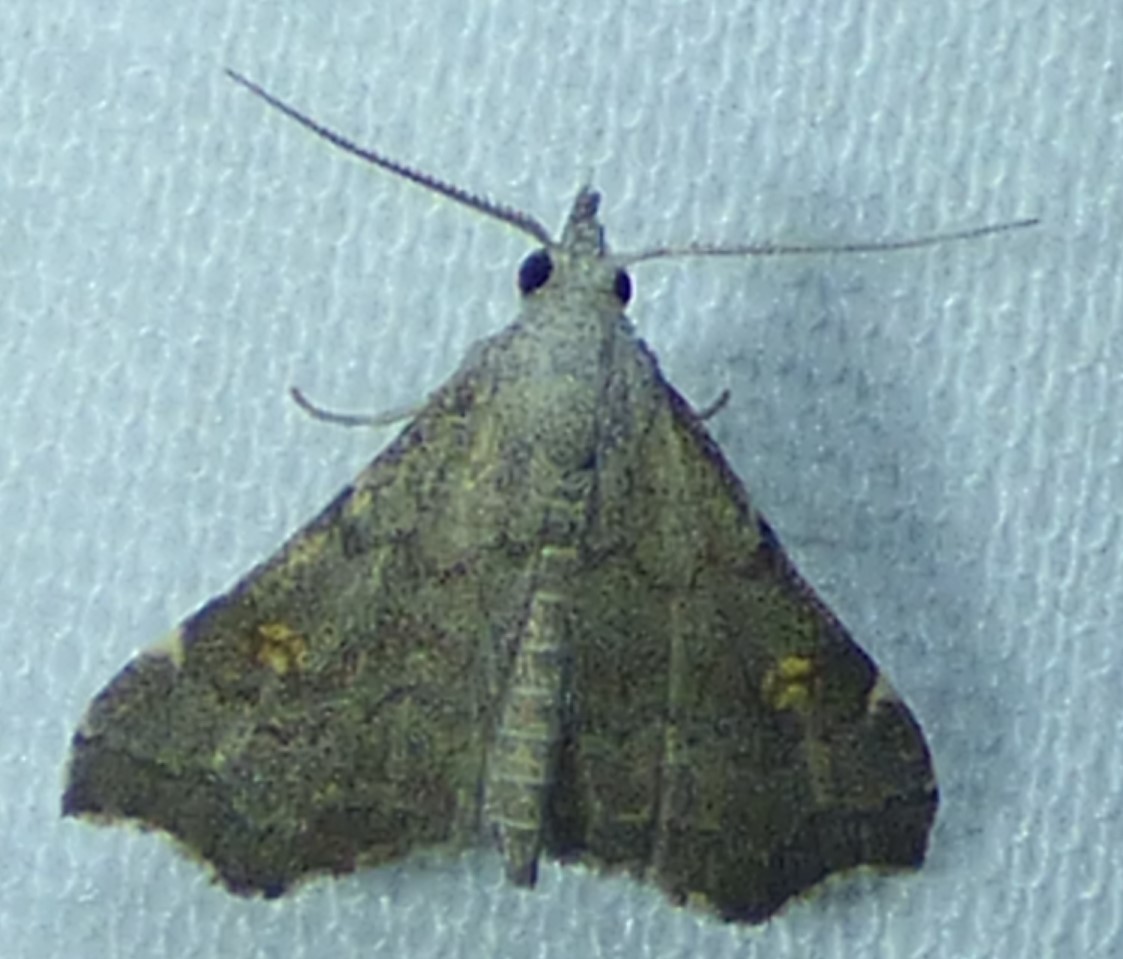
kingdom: Animalia
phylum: Arthropoda
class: Insecta
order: Lepidoptera
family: Erebidae
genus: Redectis
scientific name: Redectis pygmaea
